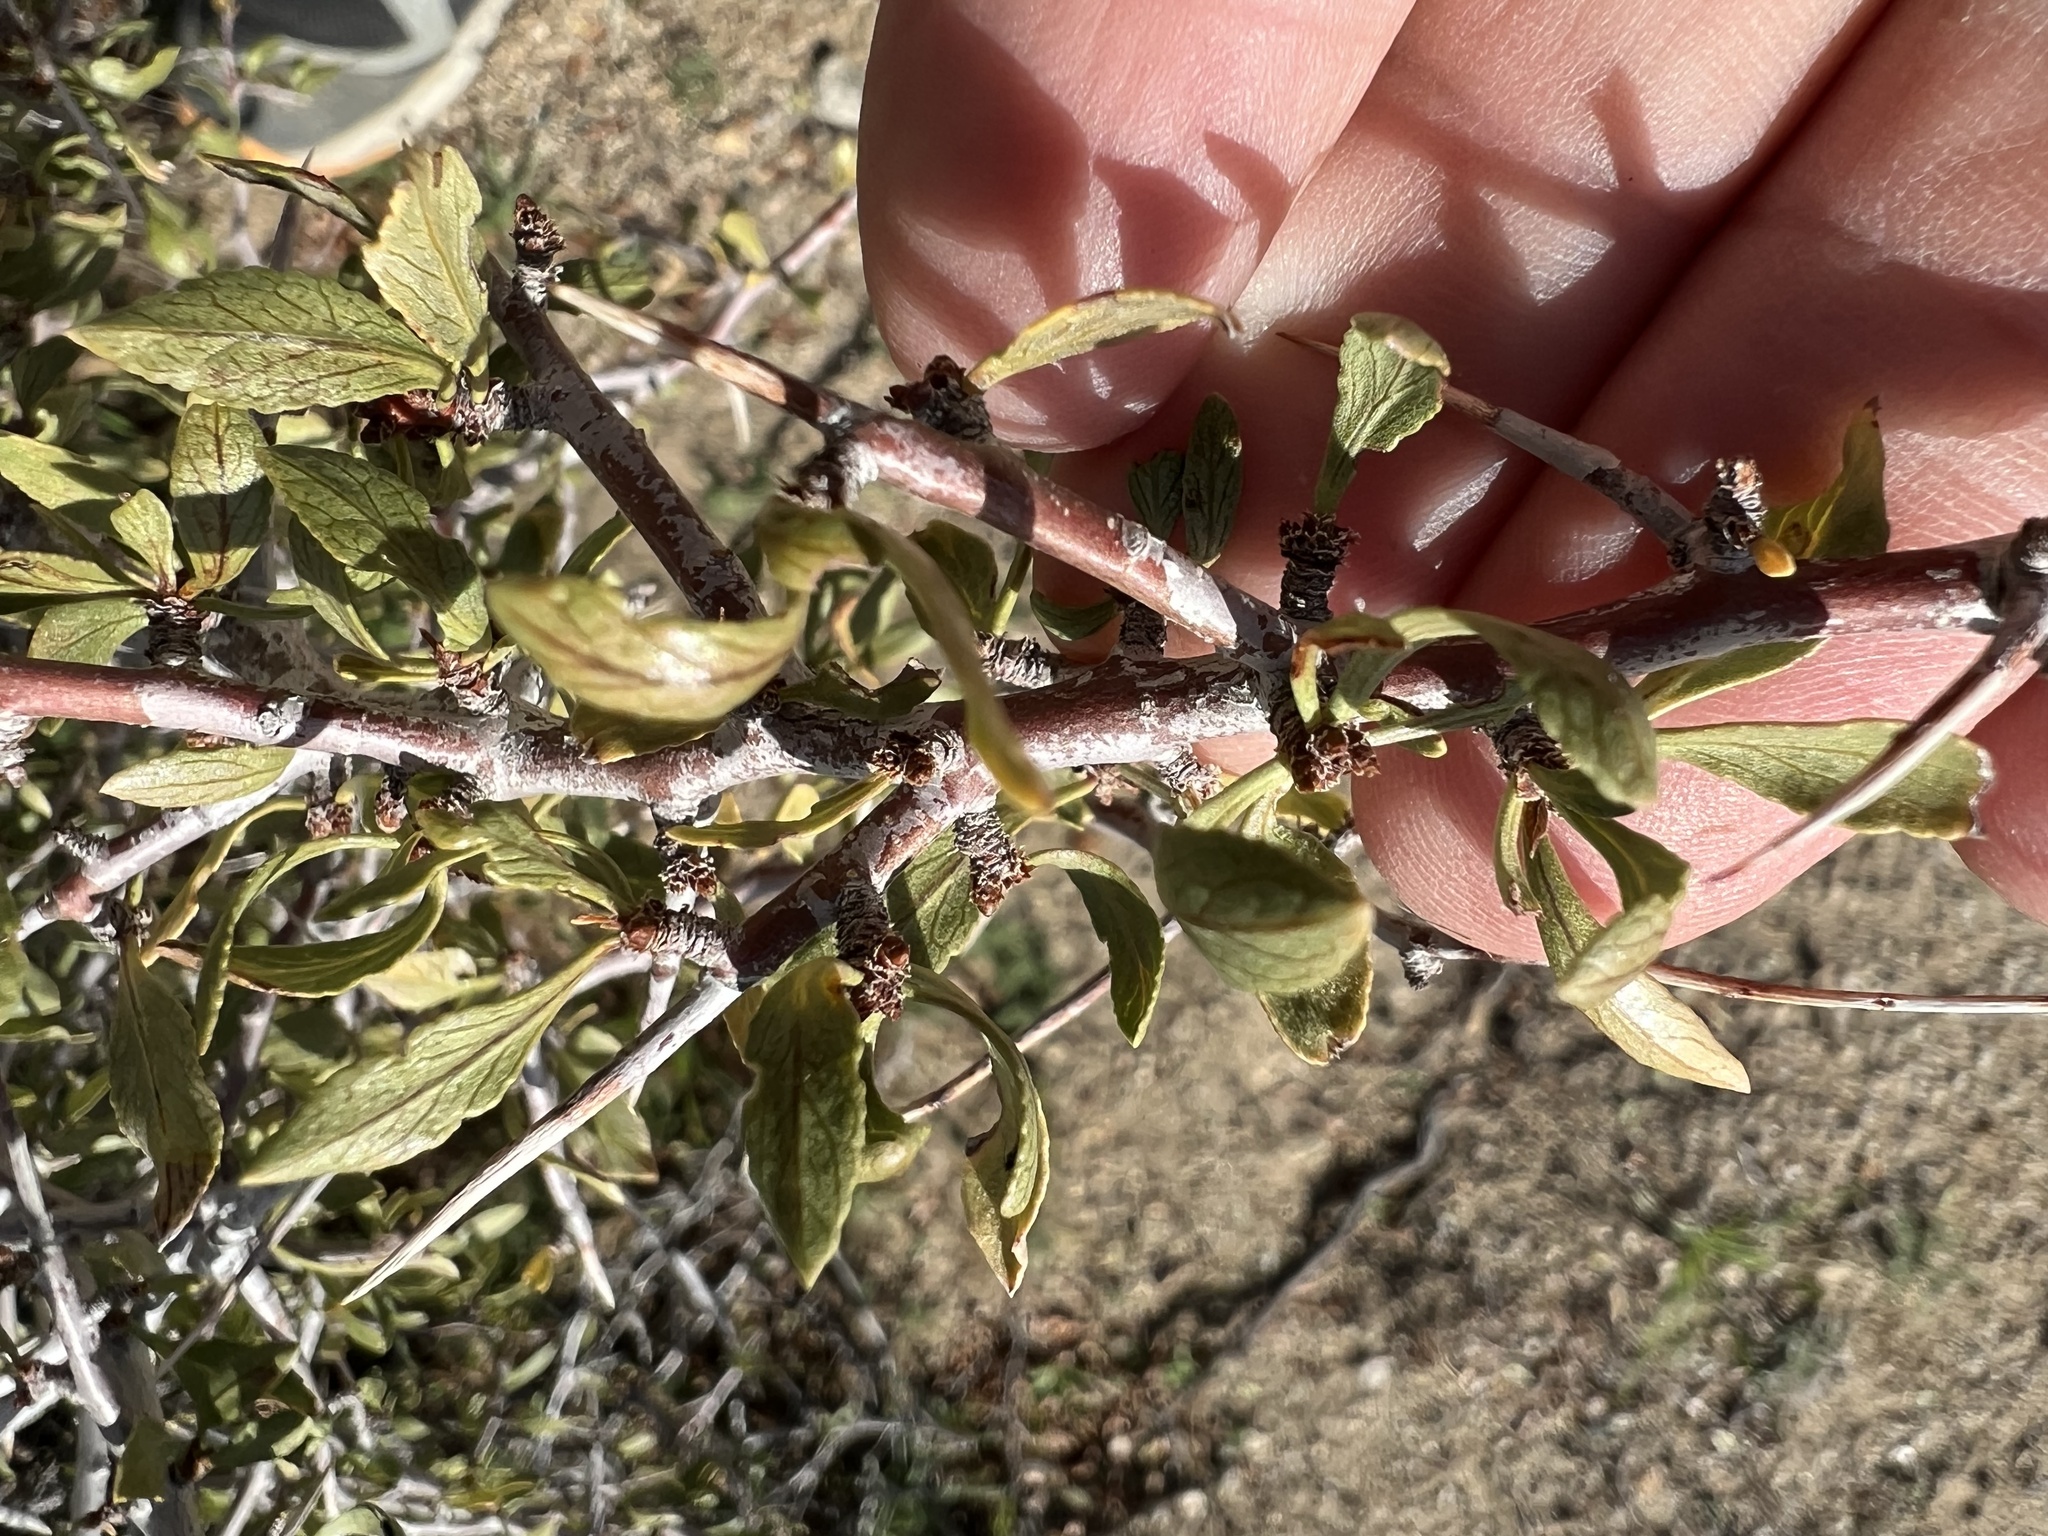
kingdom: Plantae
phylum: Tracheophyta
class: Magnoliopsida
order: Rosales
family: Rosaceae
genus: Prunus
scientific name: Prunus andersonii
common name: Desert peach
